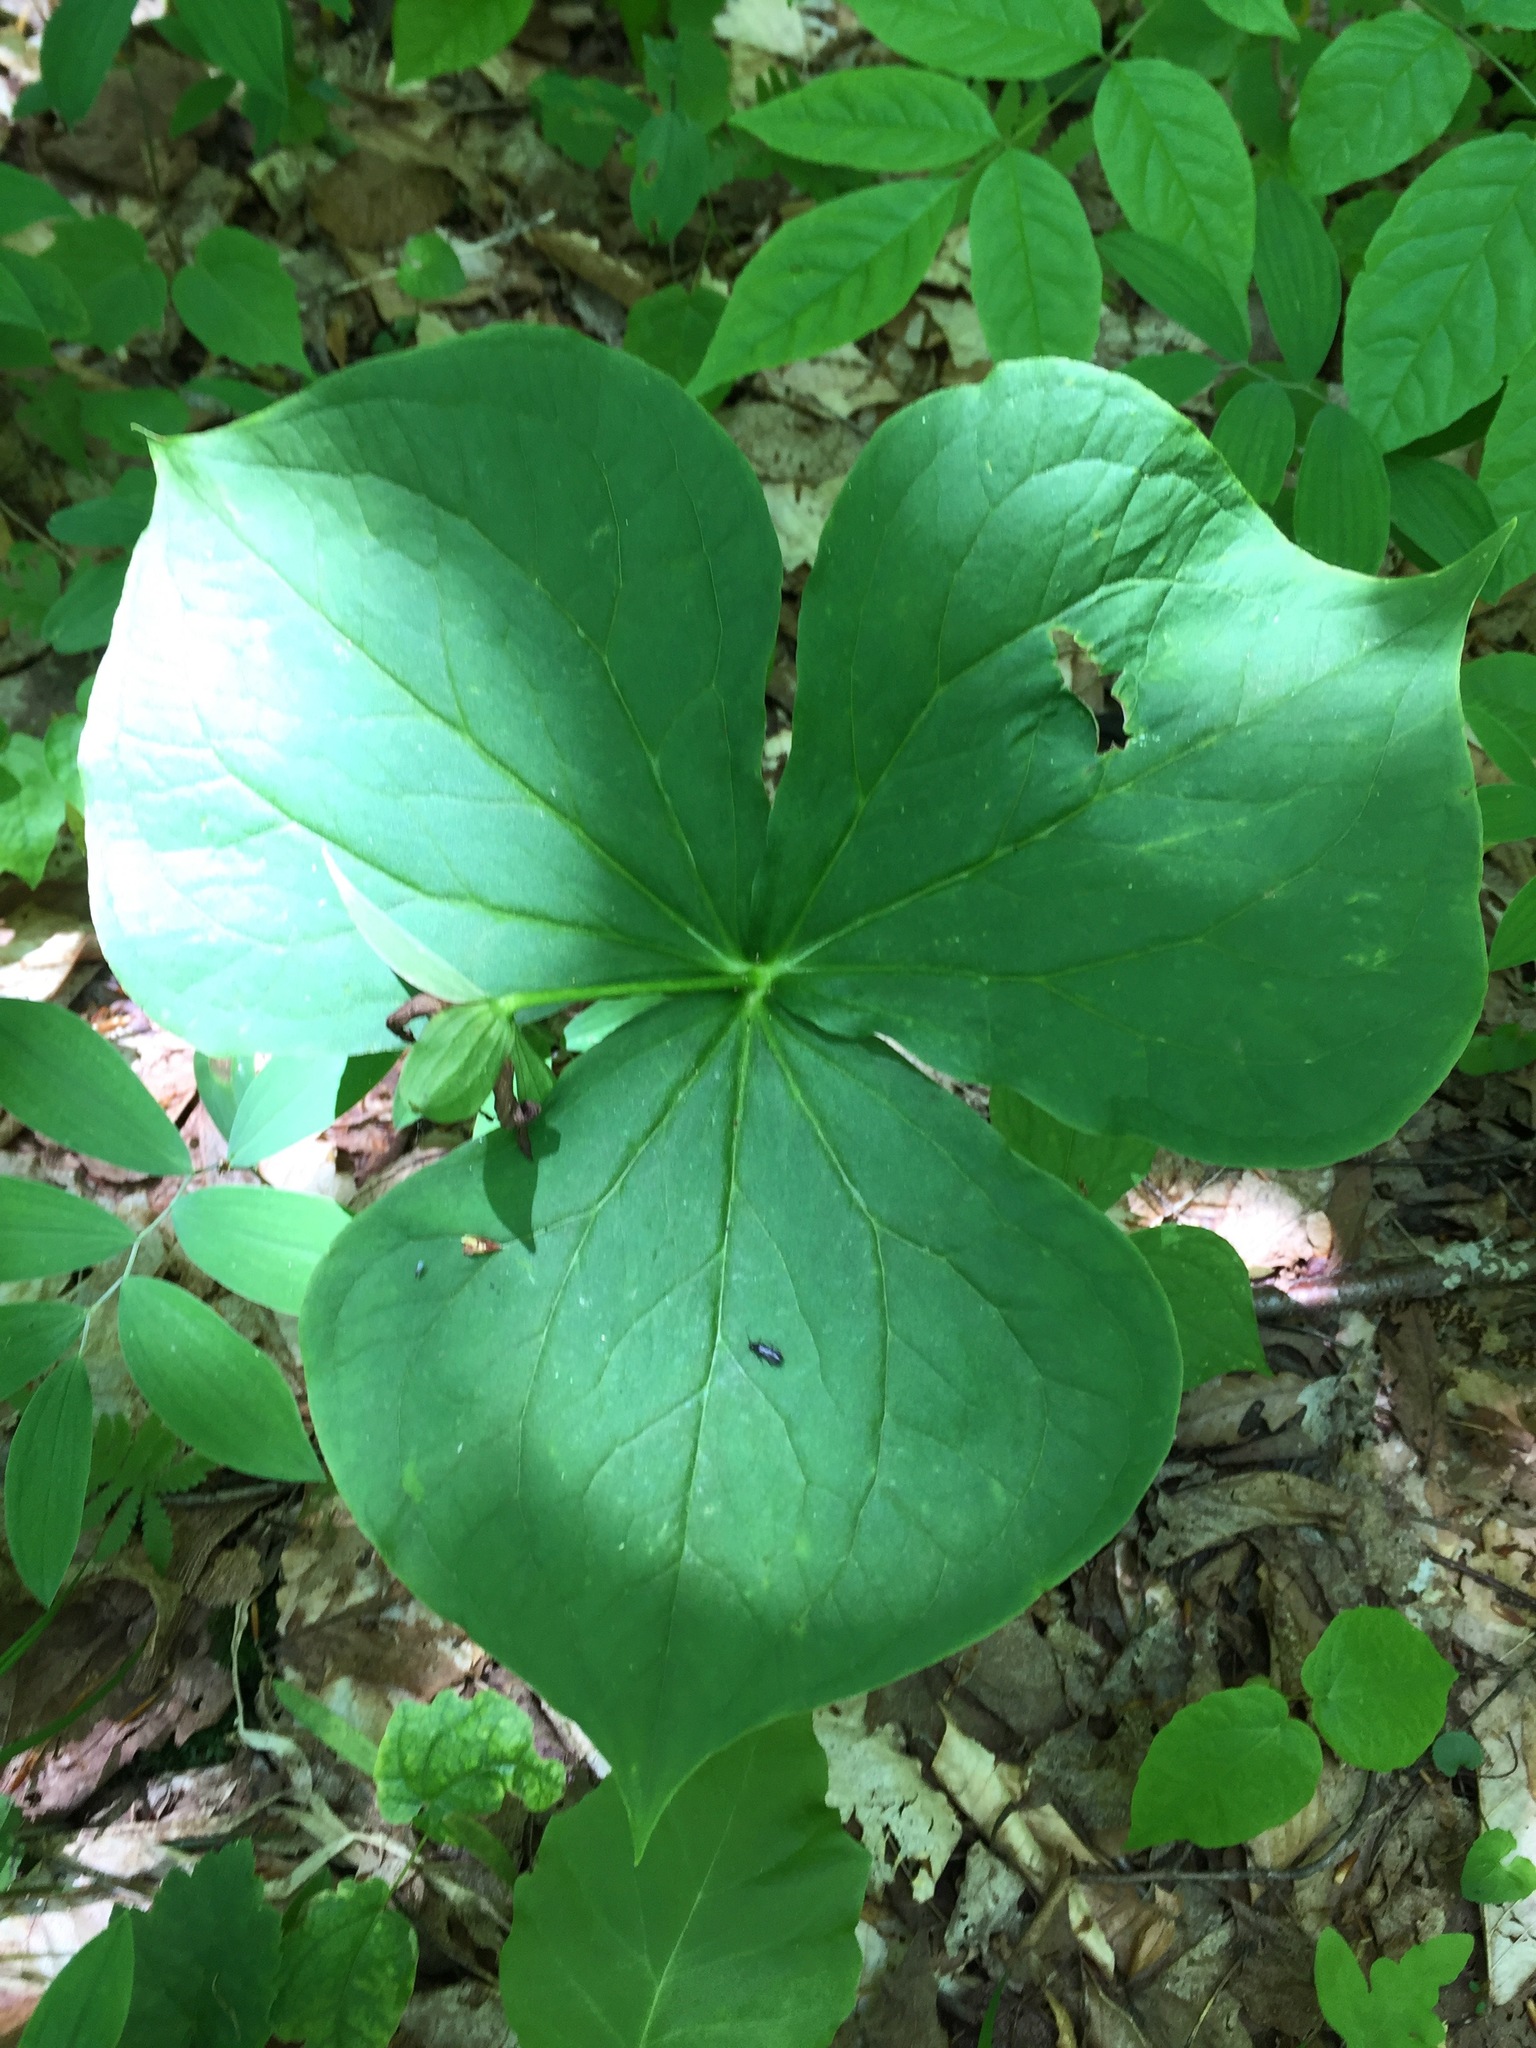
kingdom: Plantae
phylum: Tracheophyta
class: Liliopsida
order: Liliales
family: Melanthiaceae
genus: Trillium
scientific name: Trillium erectum
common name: Purple trillium
